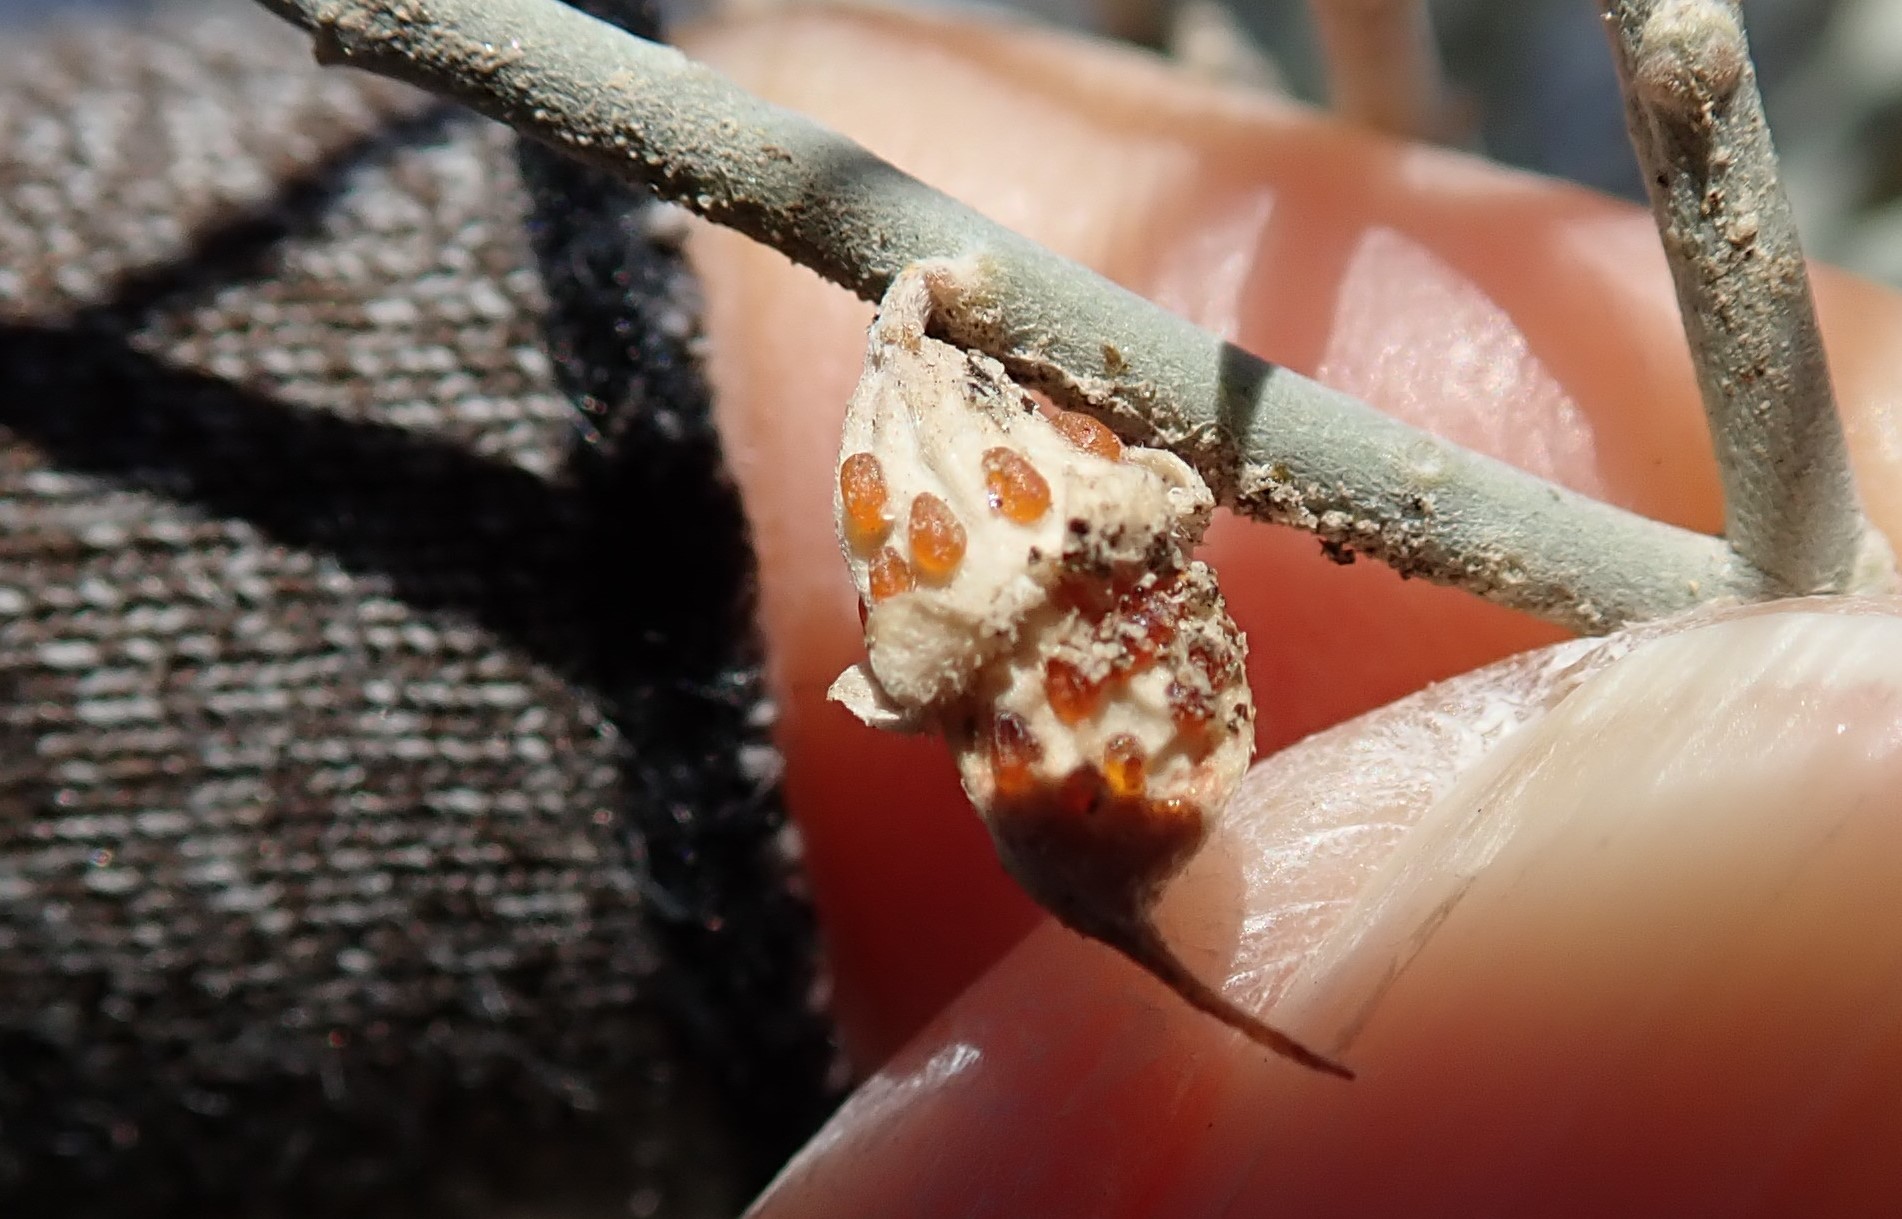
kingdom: Plantae
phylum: Tracheophyta
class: Magnoliopsida
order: Fabales
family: Fabaceae
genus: Psorothamnus
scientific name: Psorothamnus spinosus
